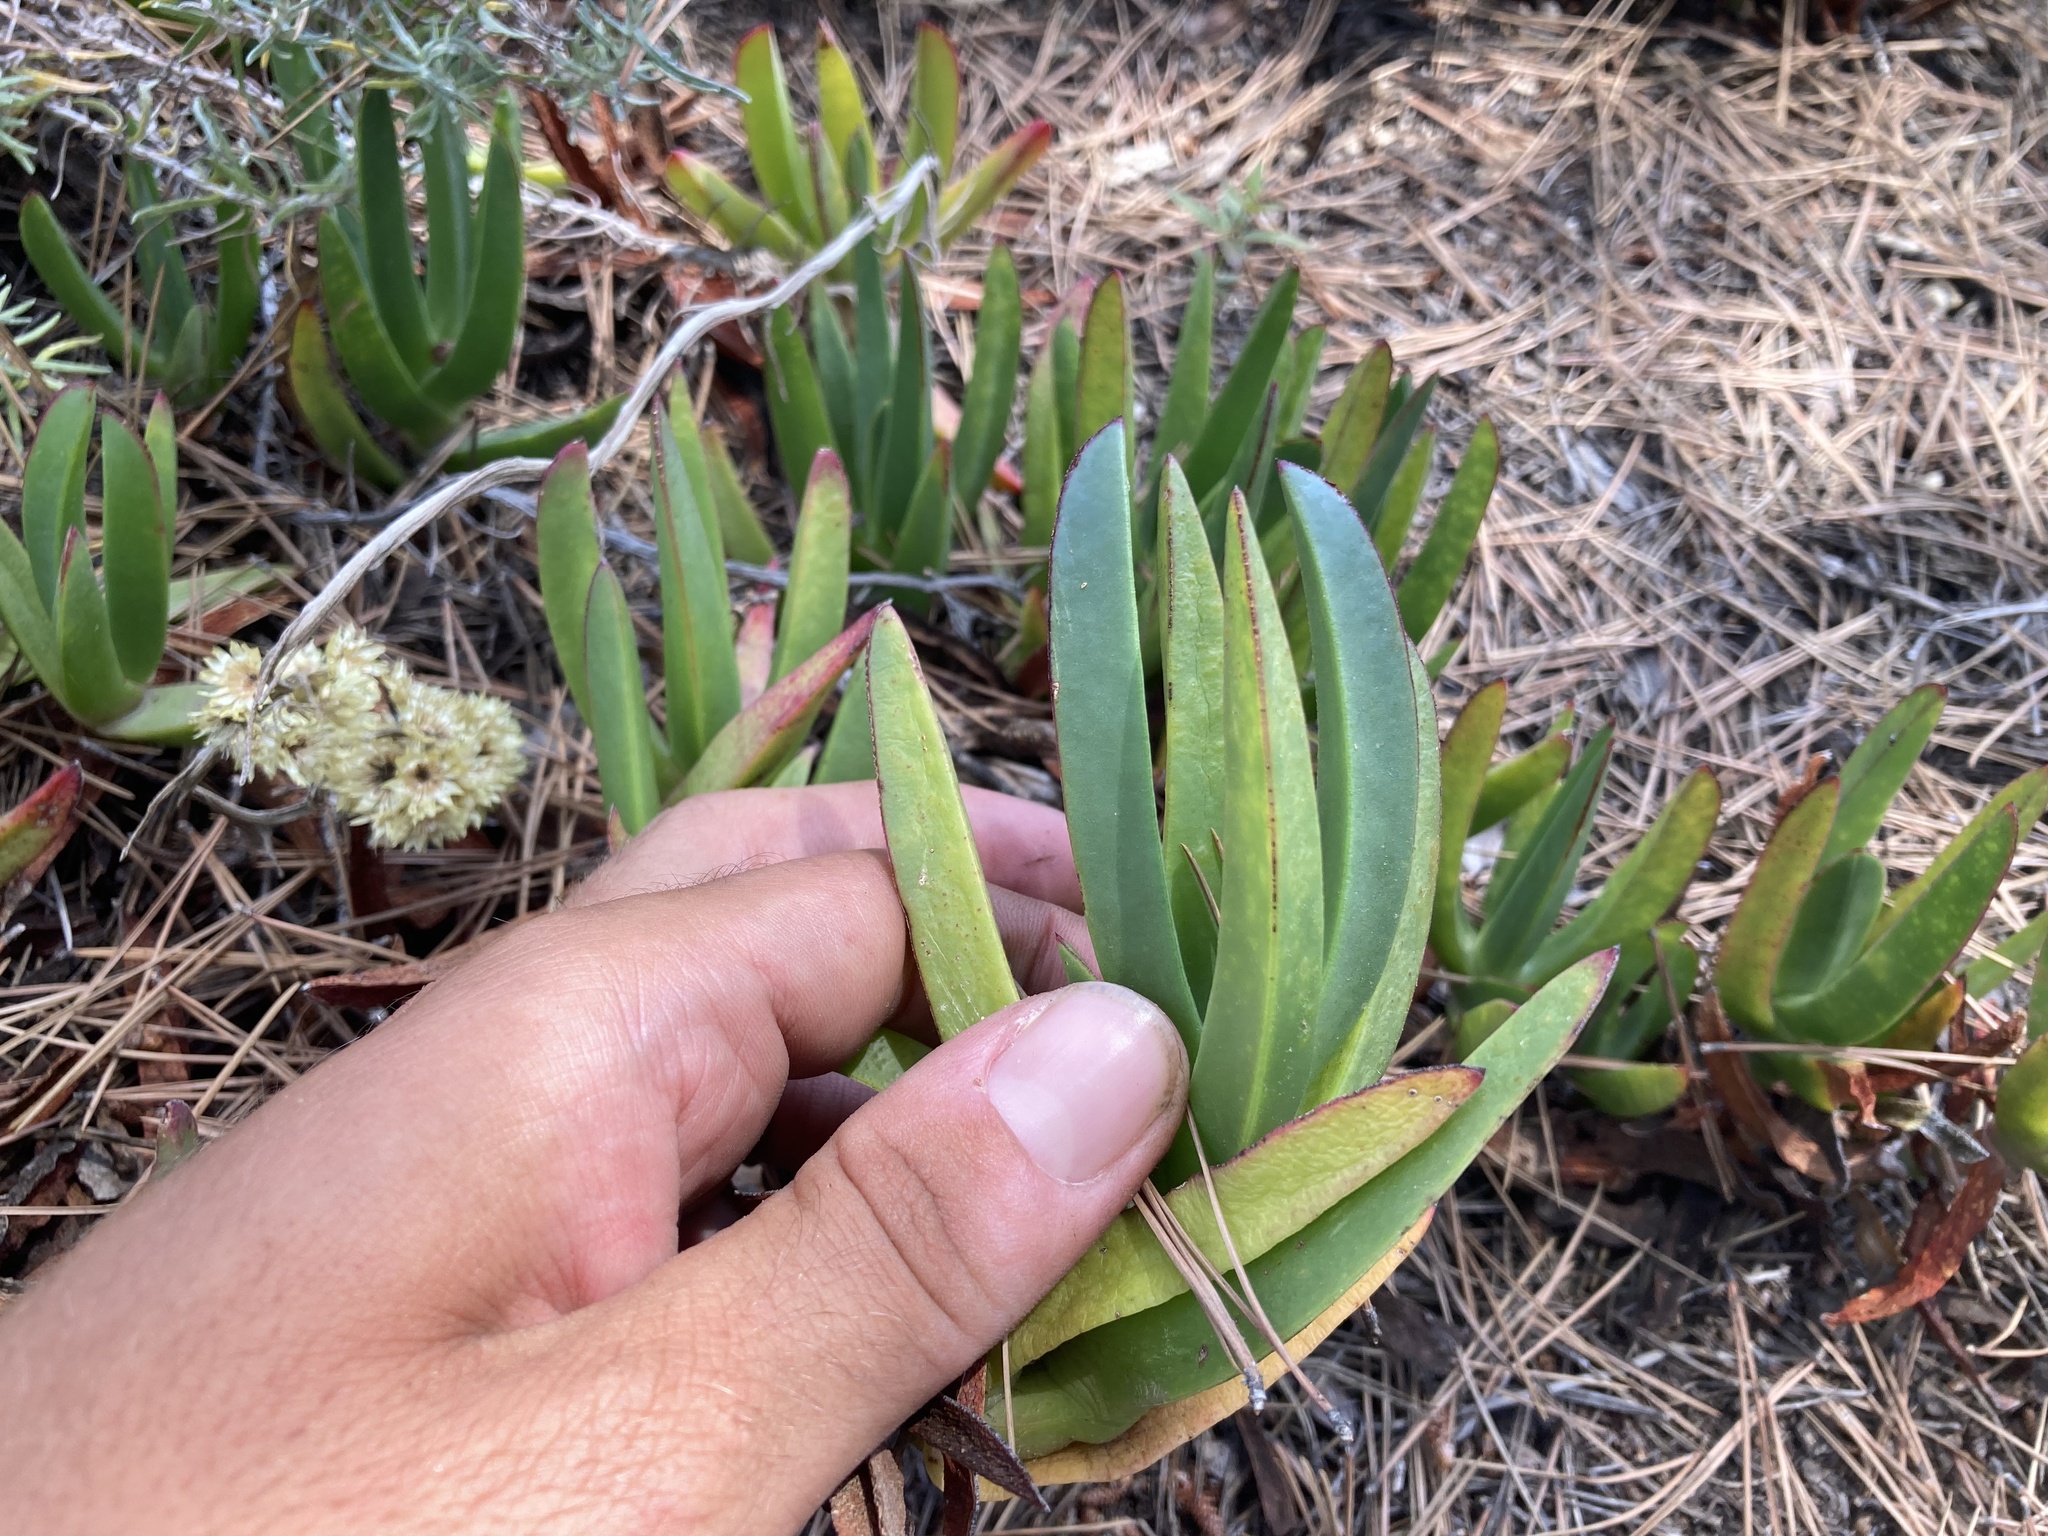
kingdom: Plantae
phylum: Tracheophyta
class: Magnoliopsida
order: Caryophyllales
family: Aizoaceae
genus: Carpobrotus
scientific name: Carpobrotus edulis
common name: Hottentot-fig
